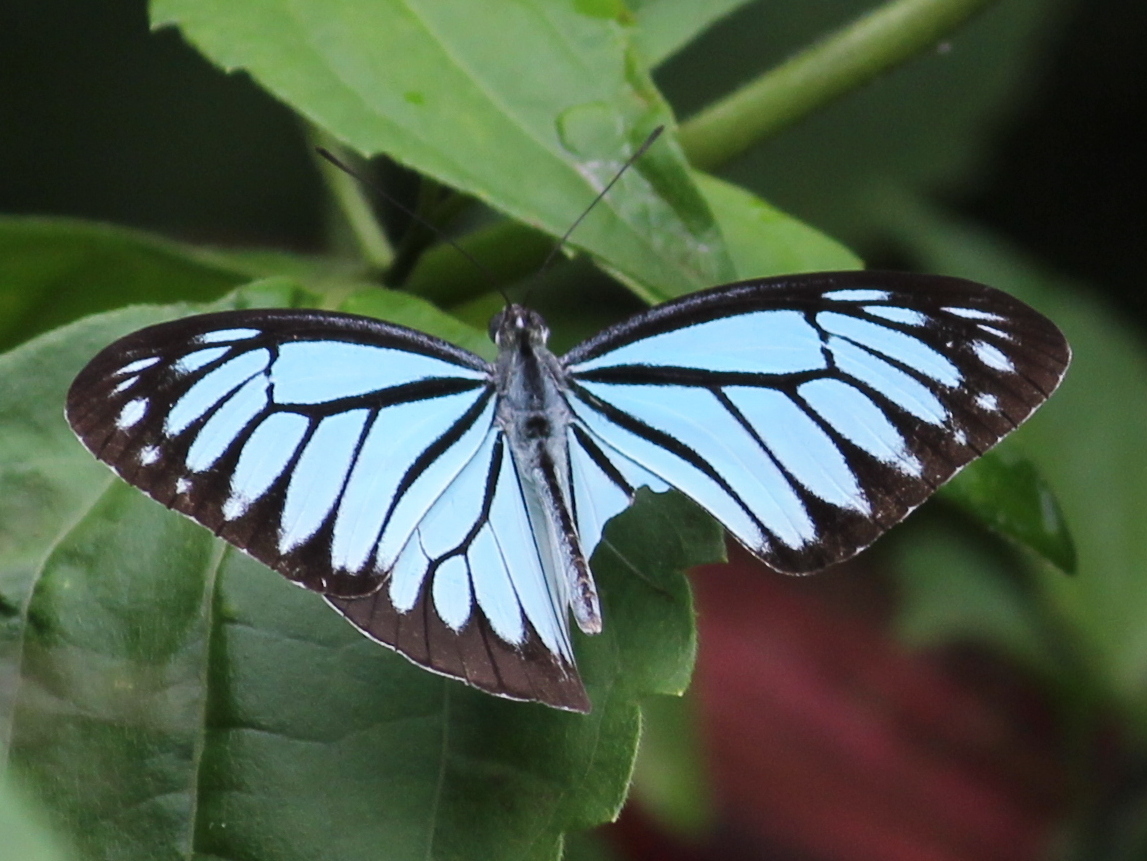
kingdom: Animalia
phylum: Arthropoda
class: Insecta
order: Lepidoptera
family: Pieridae
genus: Pareronia
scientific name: Pareronia hippia
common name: Indian wanderer
